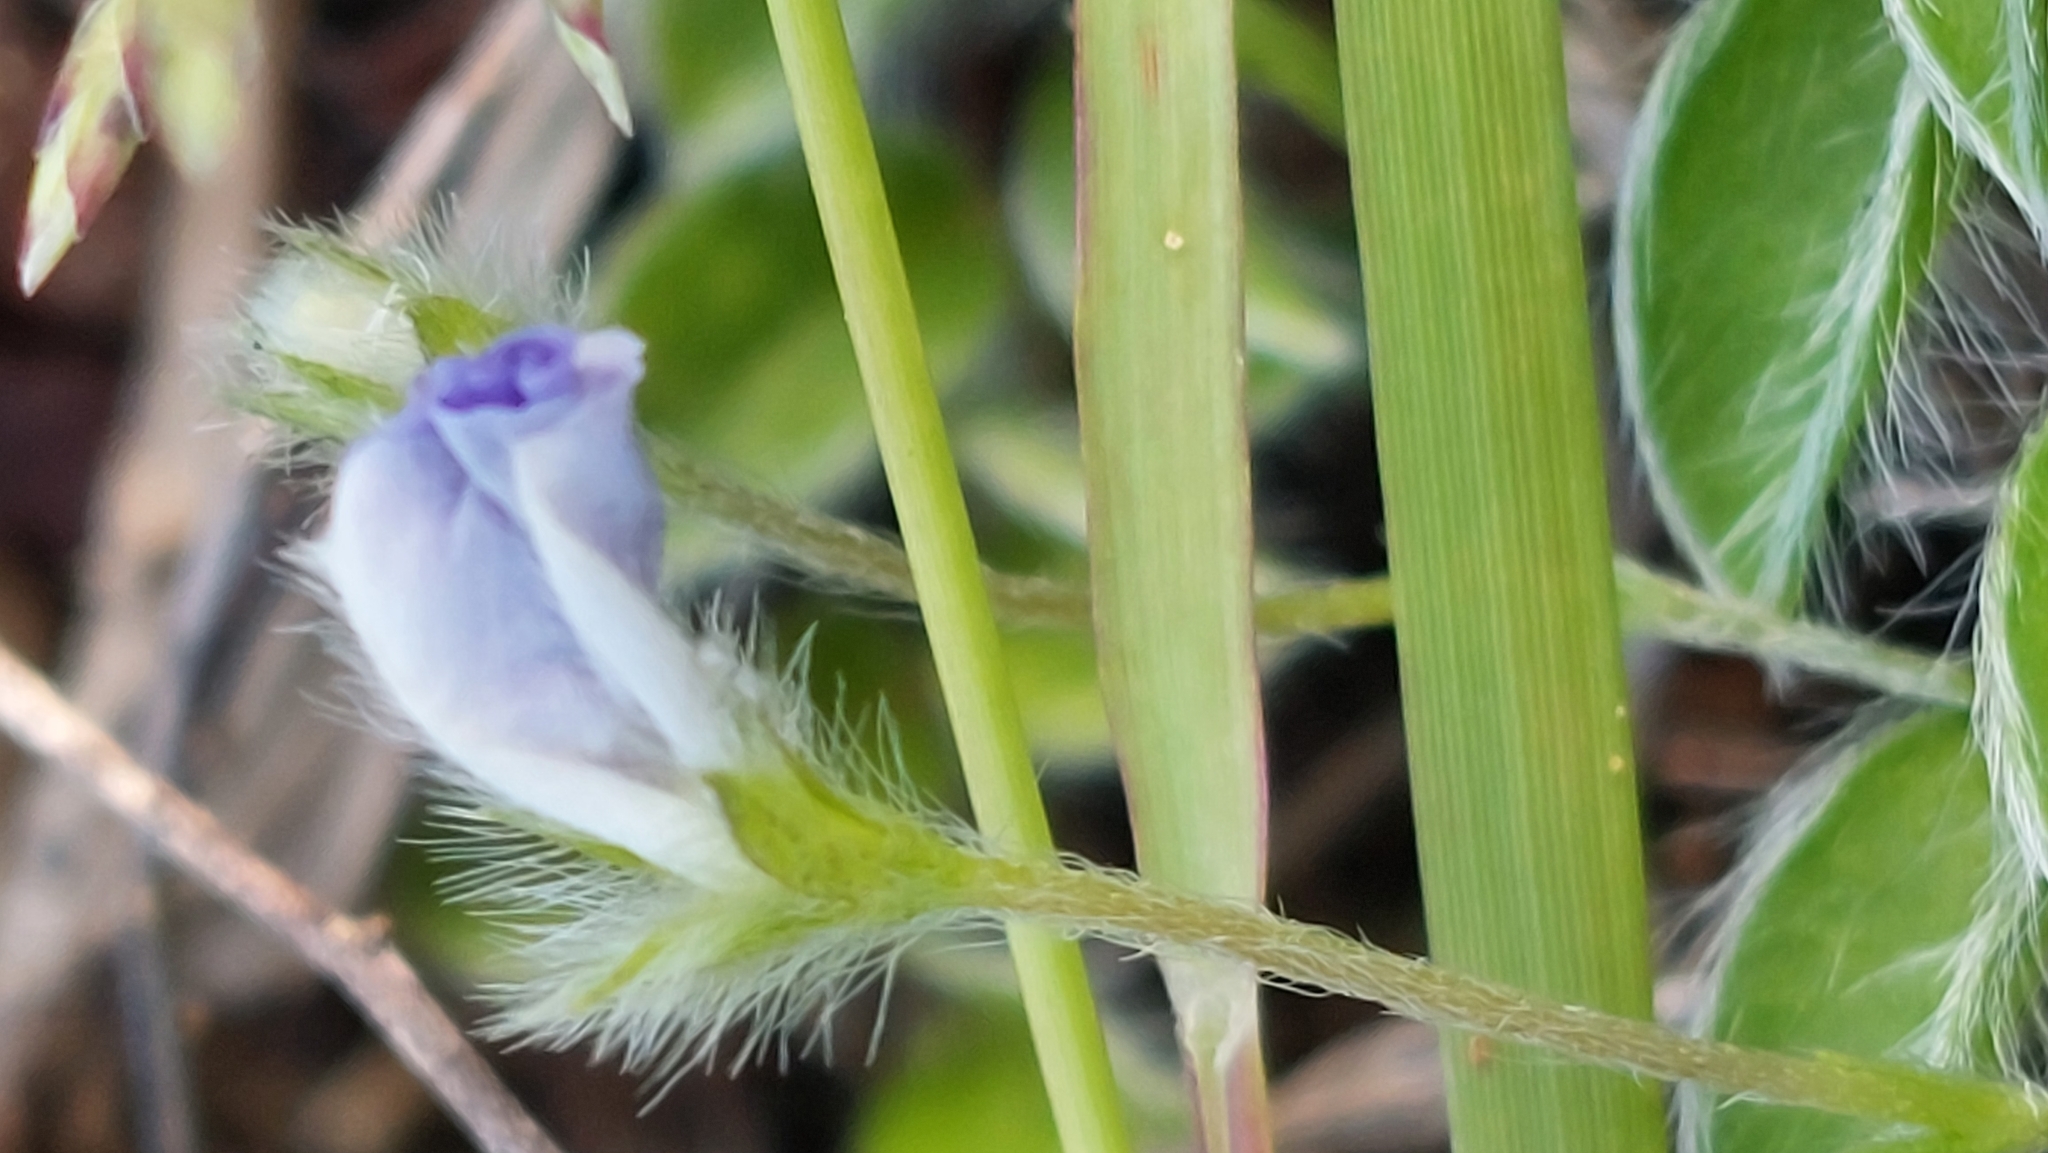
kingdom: Plantae
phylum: Tracheophyta
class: Magnoliopsida
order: Solanales
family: Convolvulaceae
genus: Evolvulus
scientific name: Evolvulus alsinoides
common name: Slender dwarf morning-glory
